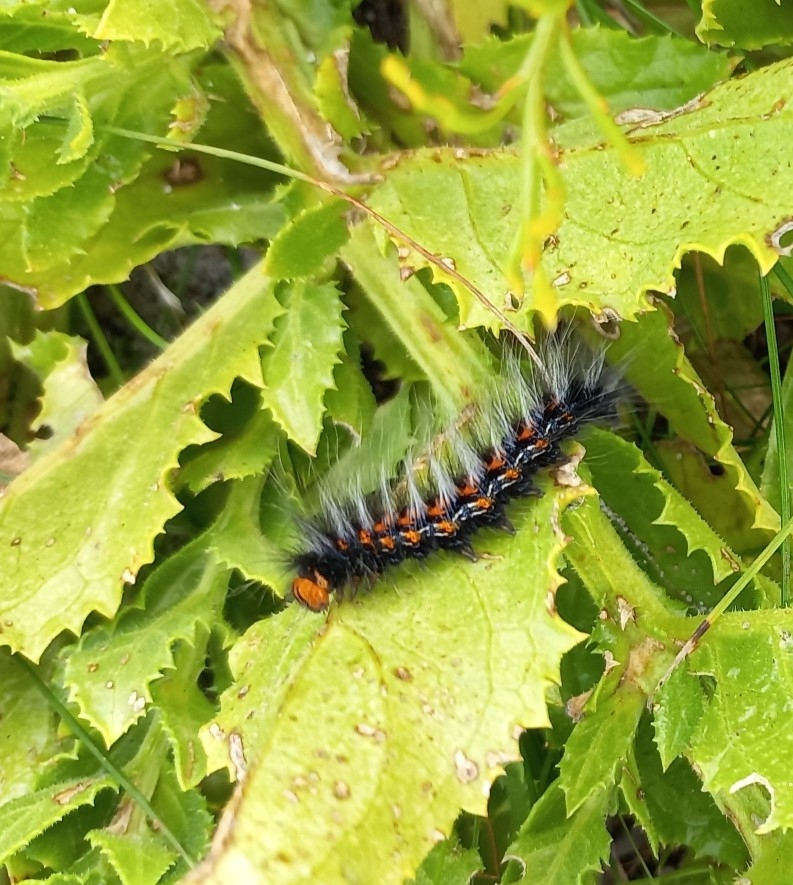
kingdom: Animalia
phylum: Arthropoda
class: Insecta
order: Lepidoptera
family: Lasiocampidae
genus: Mesocelis
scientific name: Mesocelis monticola
